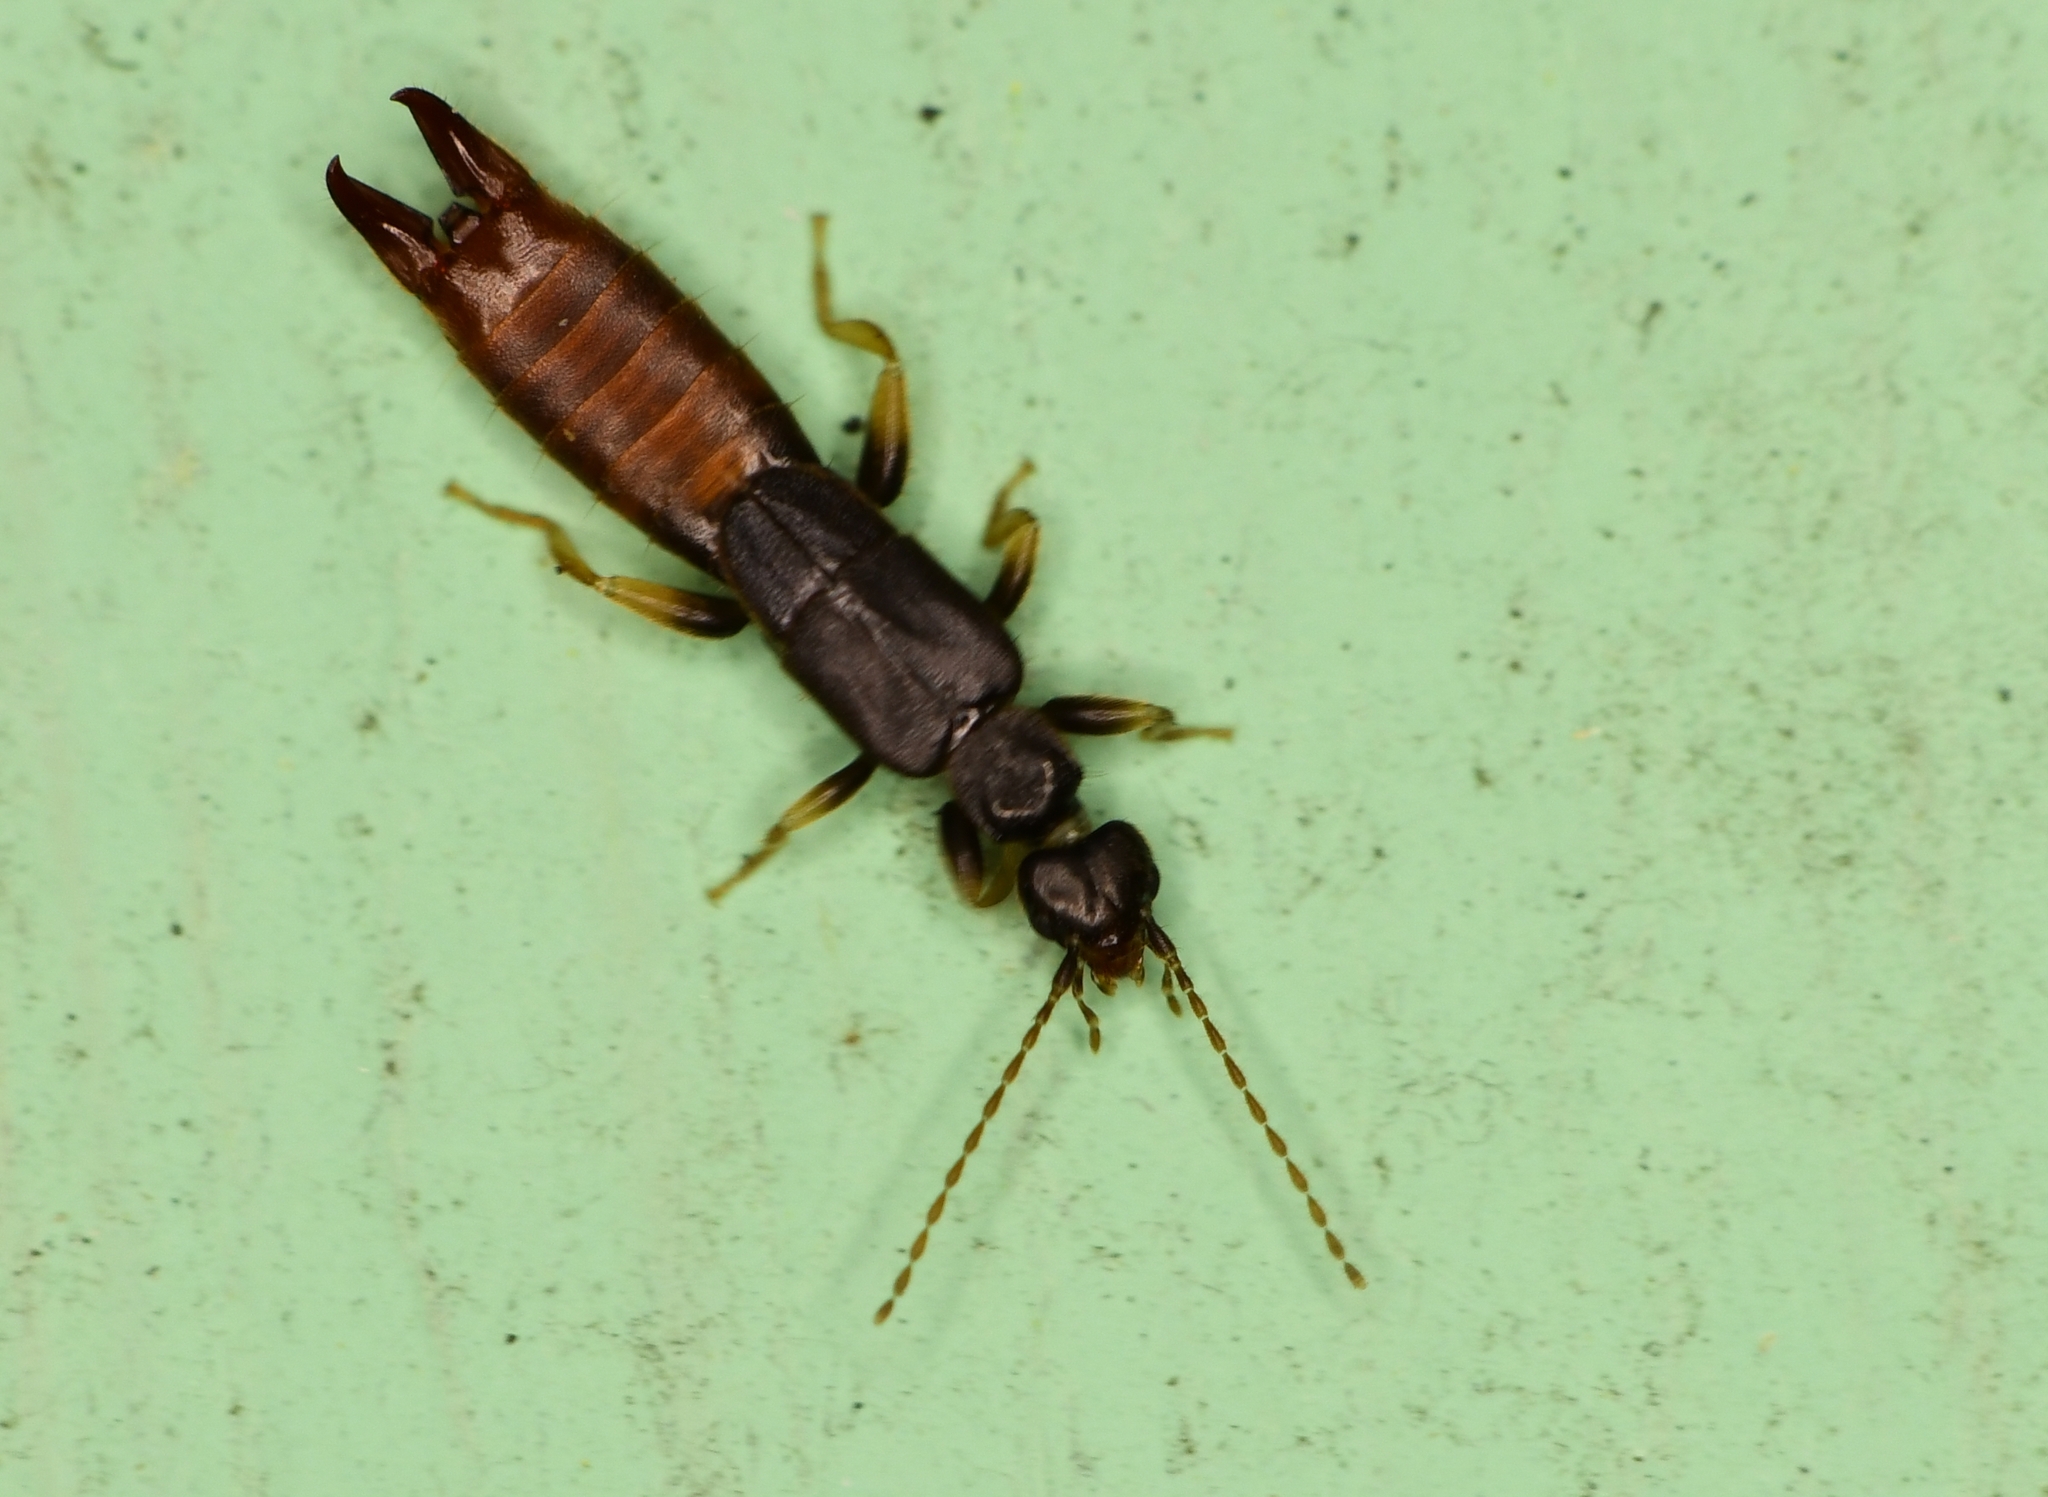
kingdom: Animalia
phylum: Arthropoda
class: Insecta
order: Dermaptera
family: Spongiphoridae
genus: Paralabella
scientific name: Paralabella curvicauda
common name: Earwig
